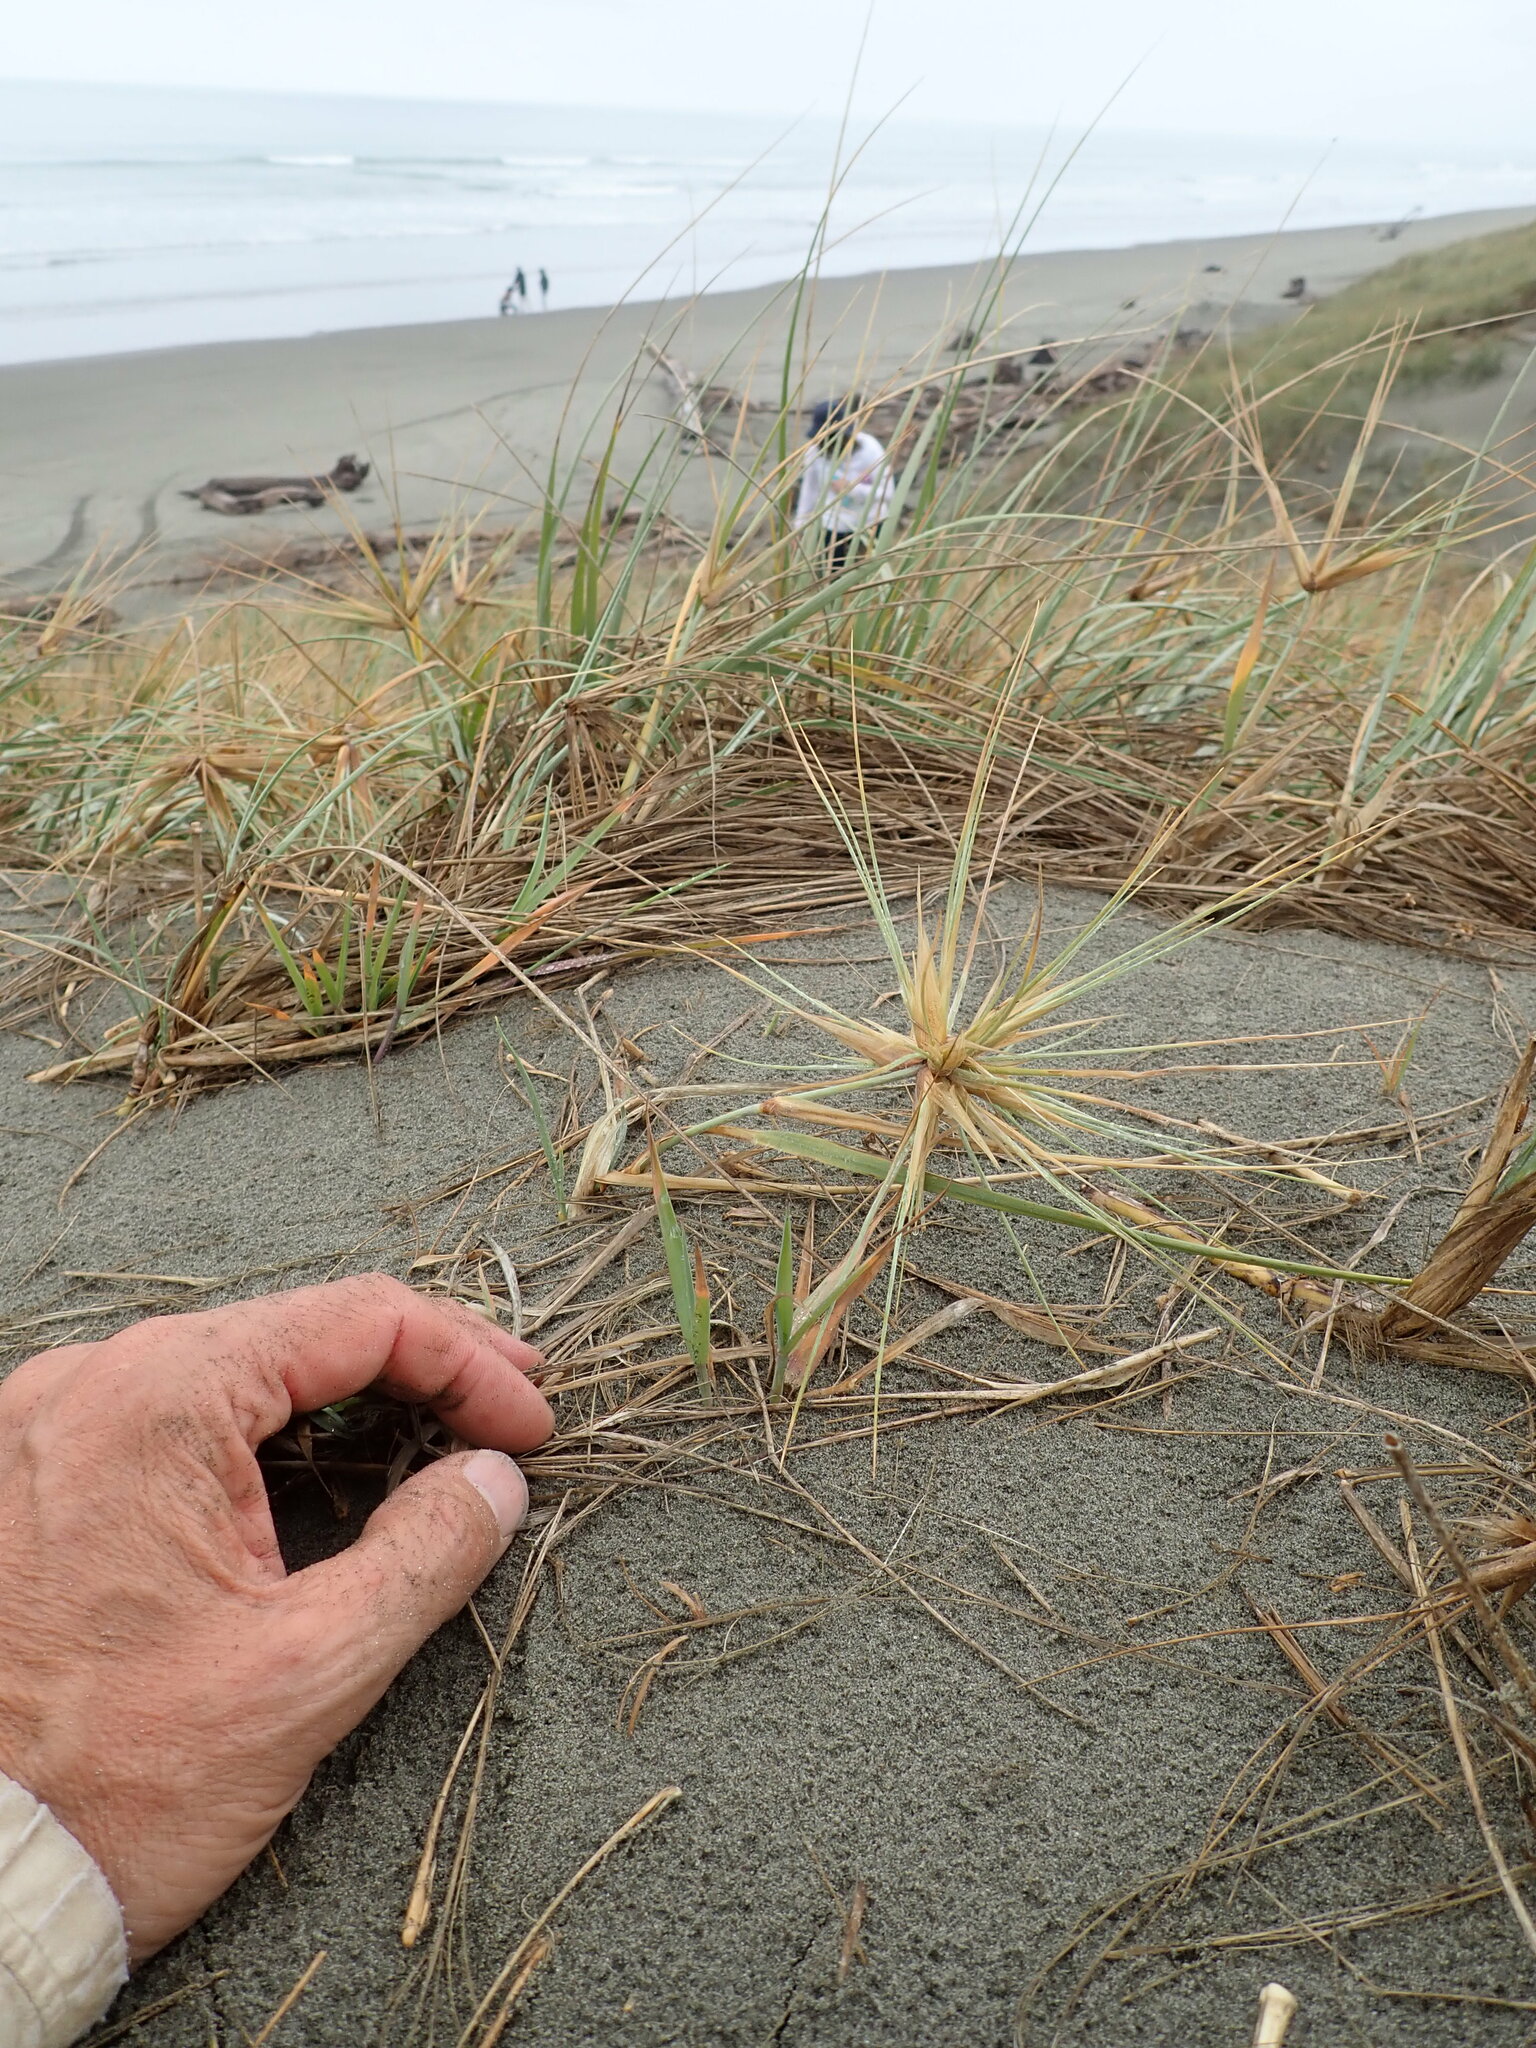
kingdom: Plantae
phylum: Tracheophyta
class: Liliopsida
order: Poales
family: Poaceae
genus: Spinifex
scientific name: Spinifex sericeus
